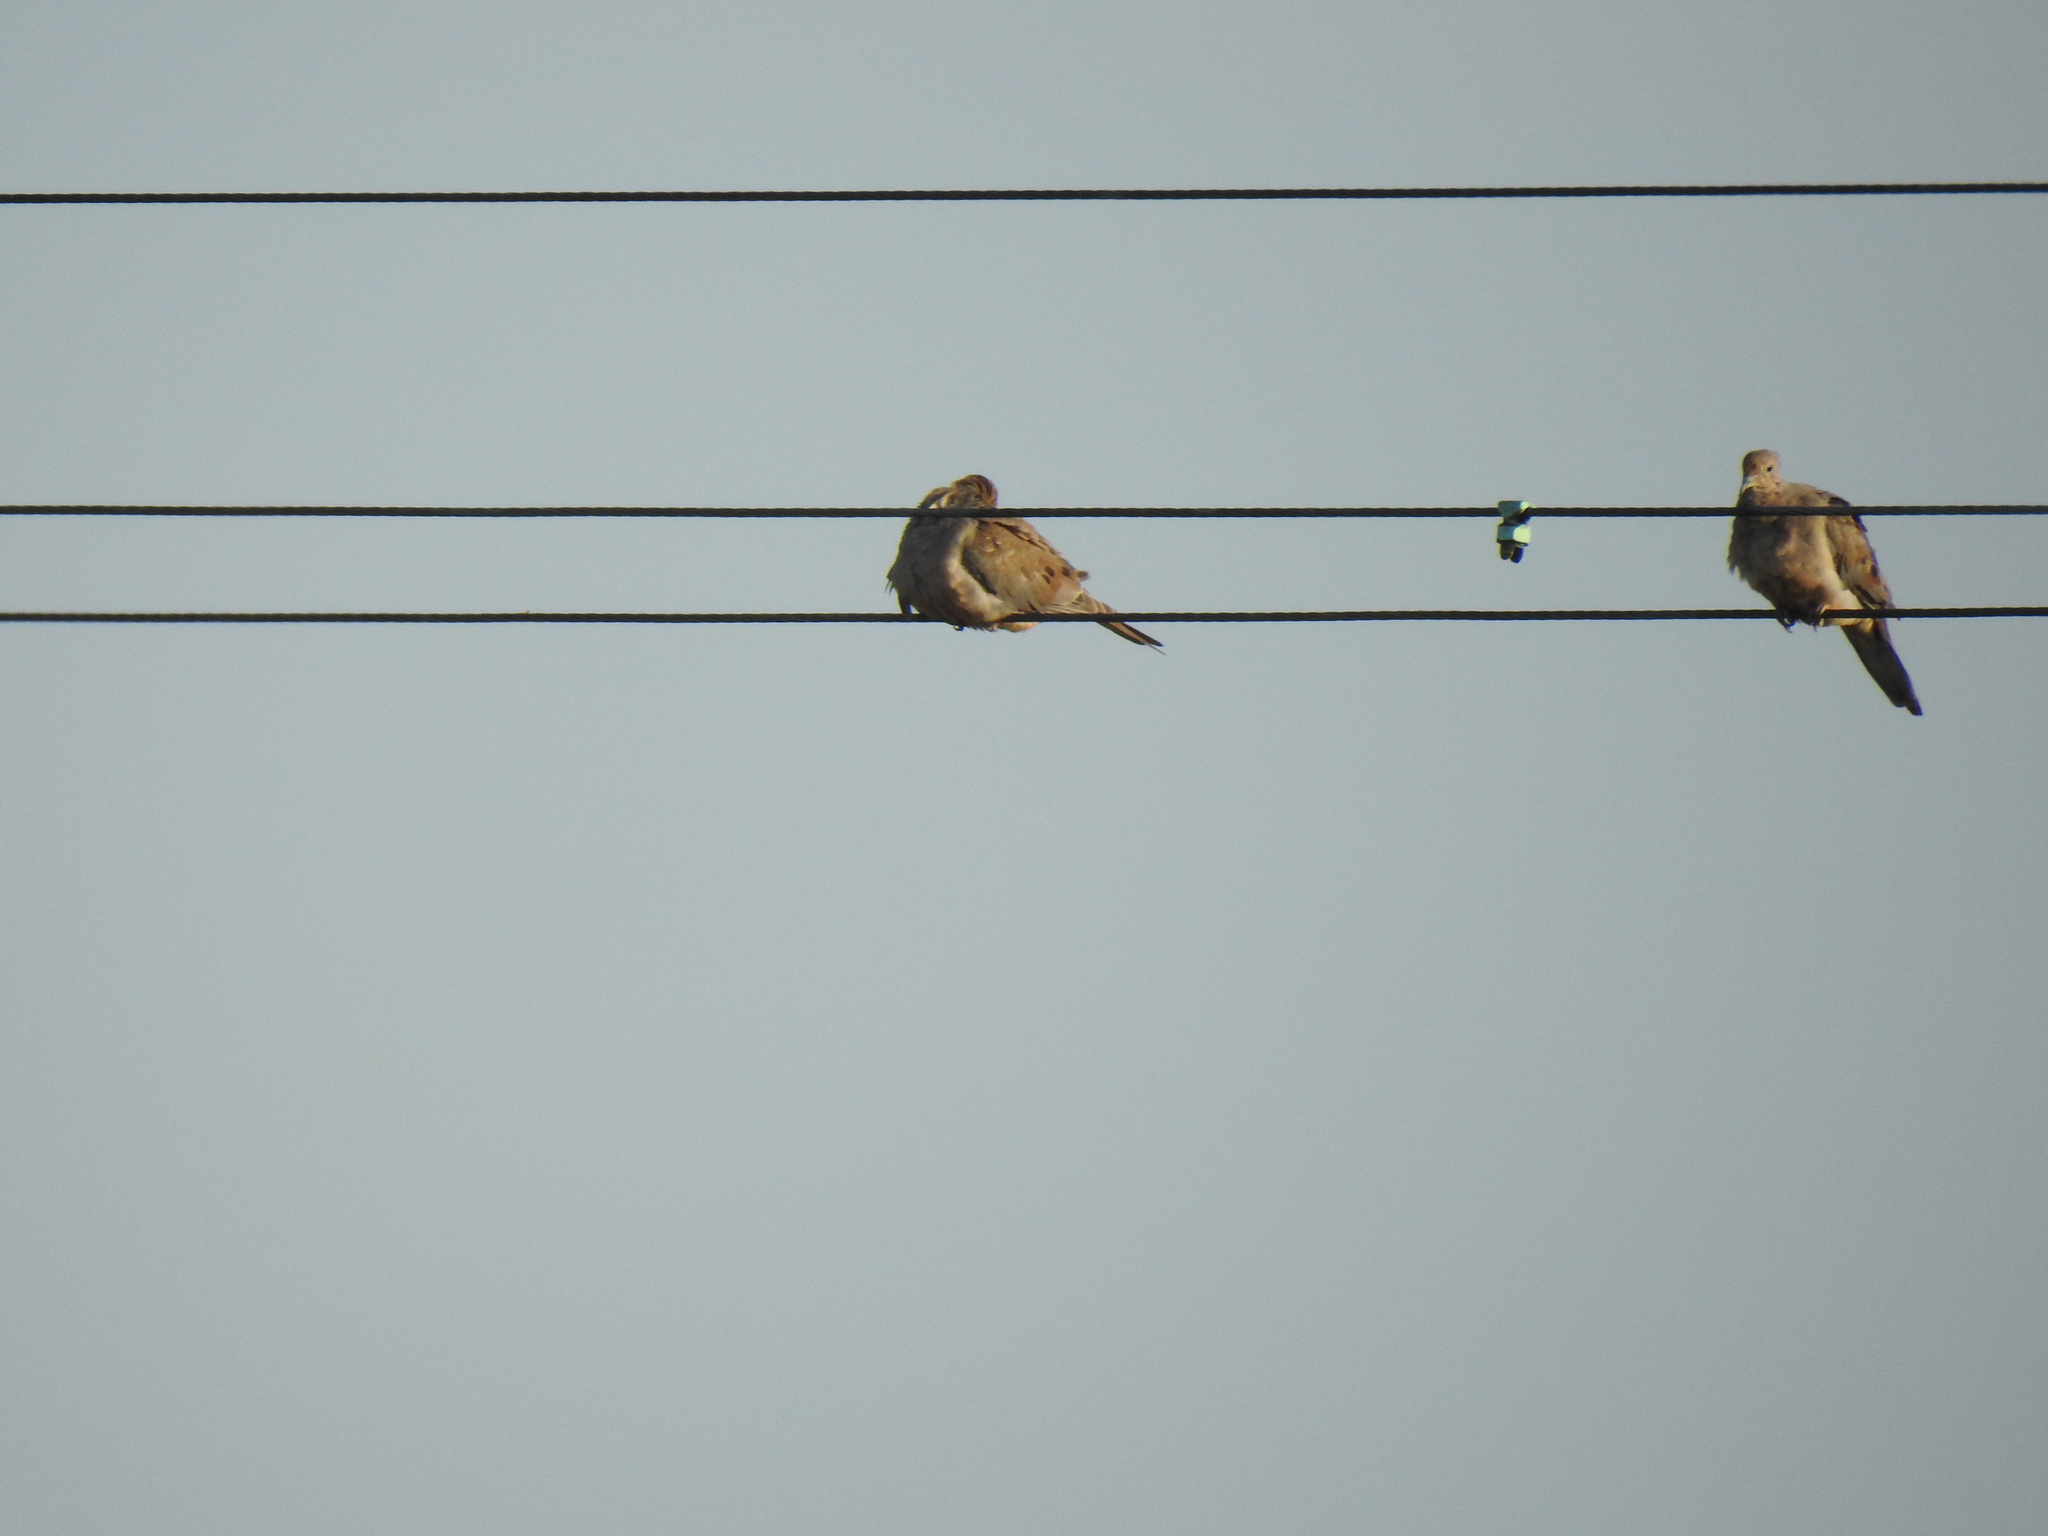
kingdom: Animalia
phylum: Chordata
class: Aves
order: Columbiformes
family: Columbidae
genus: Zenaida
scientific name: Zenaida macroura
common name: Mourning dove
